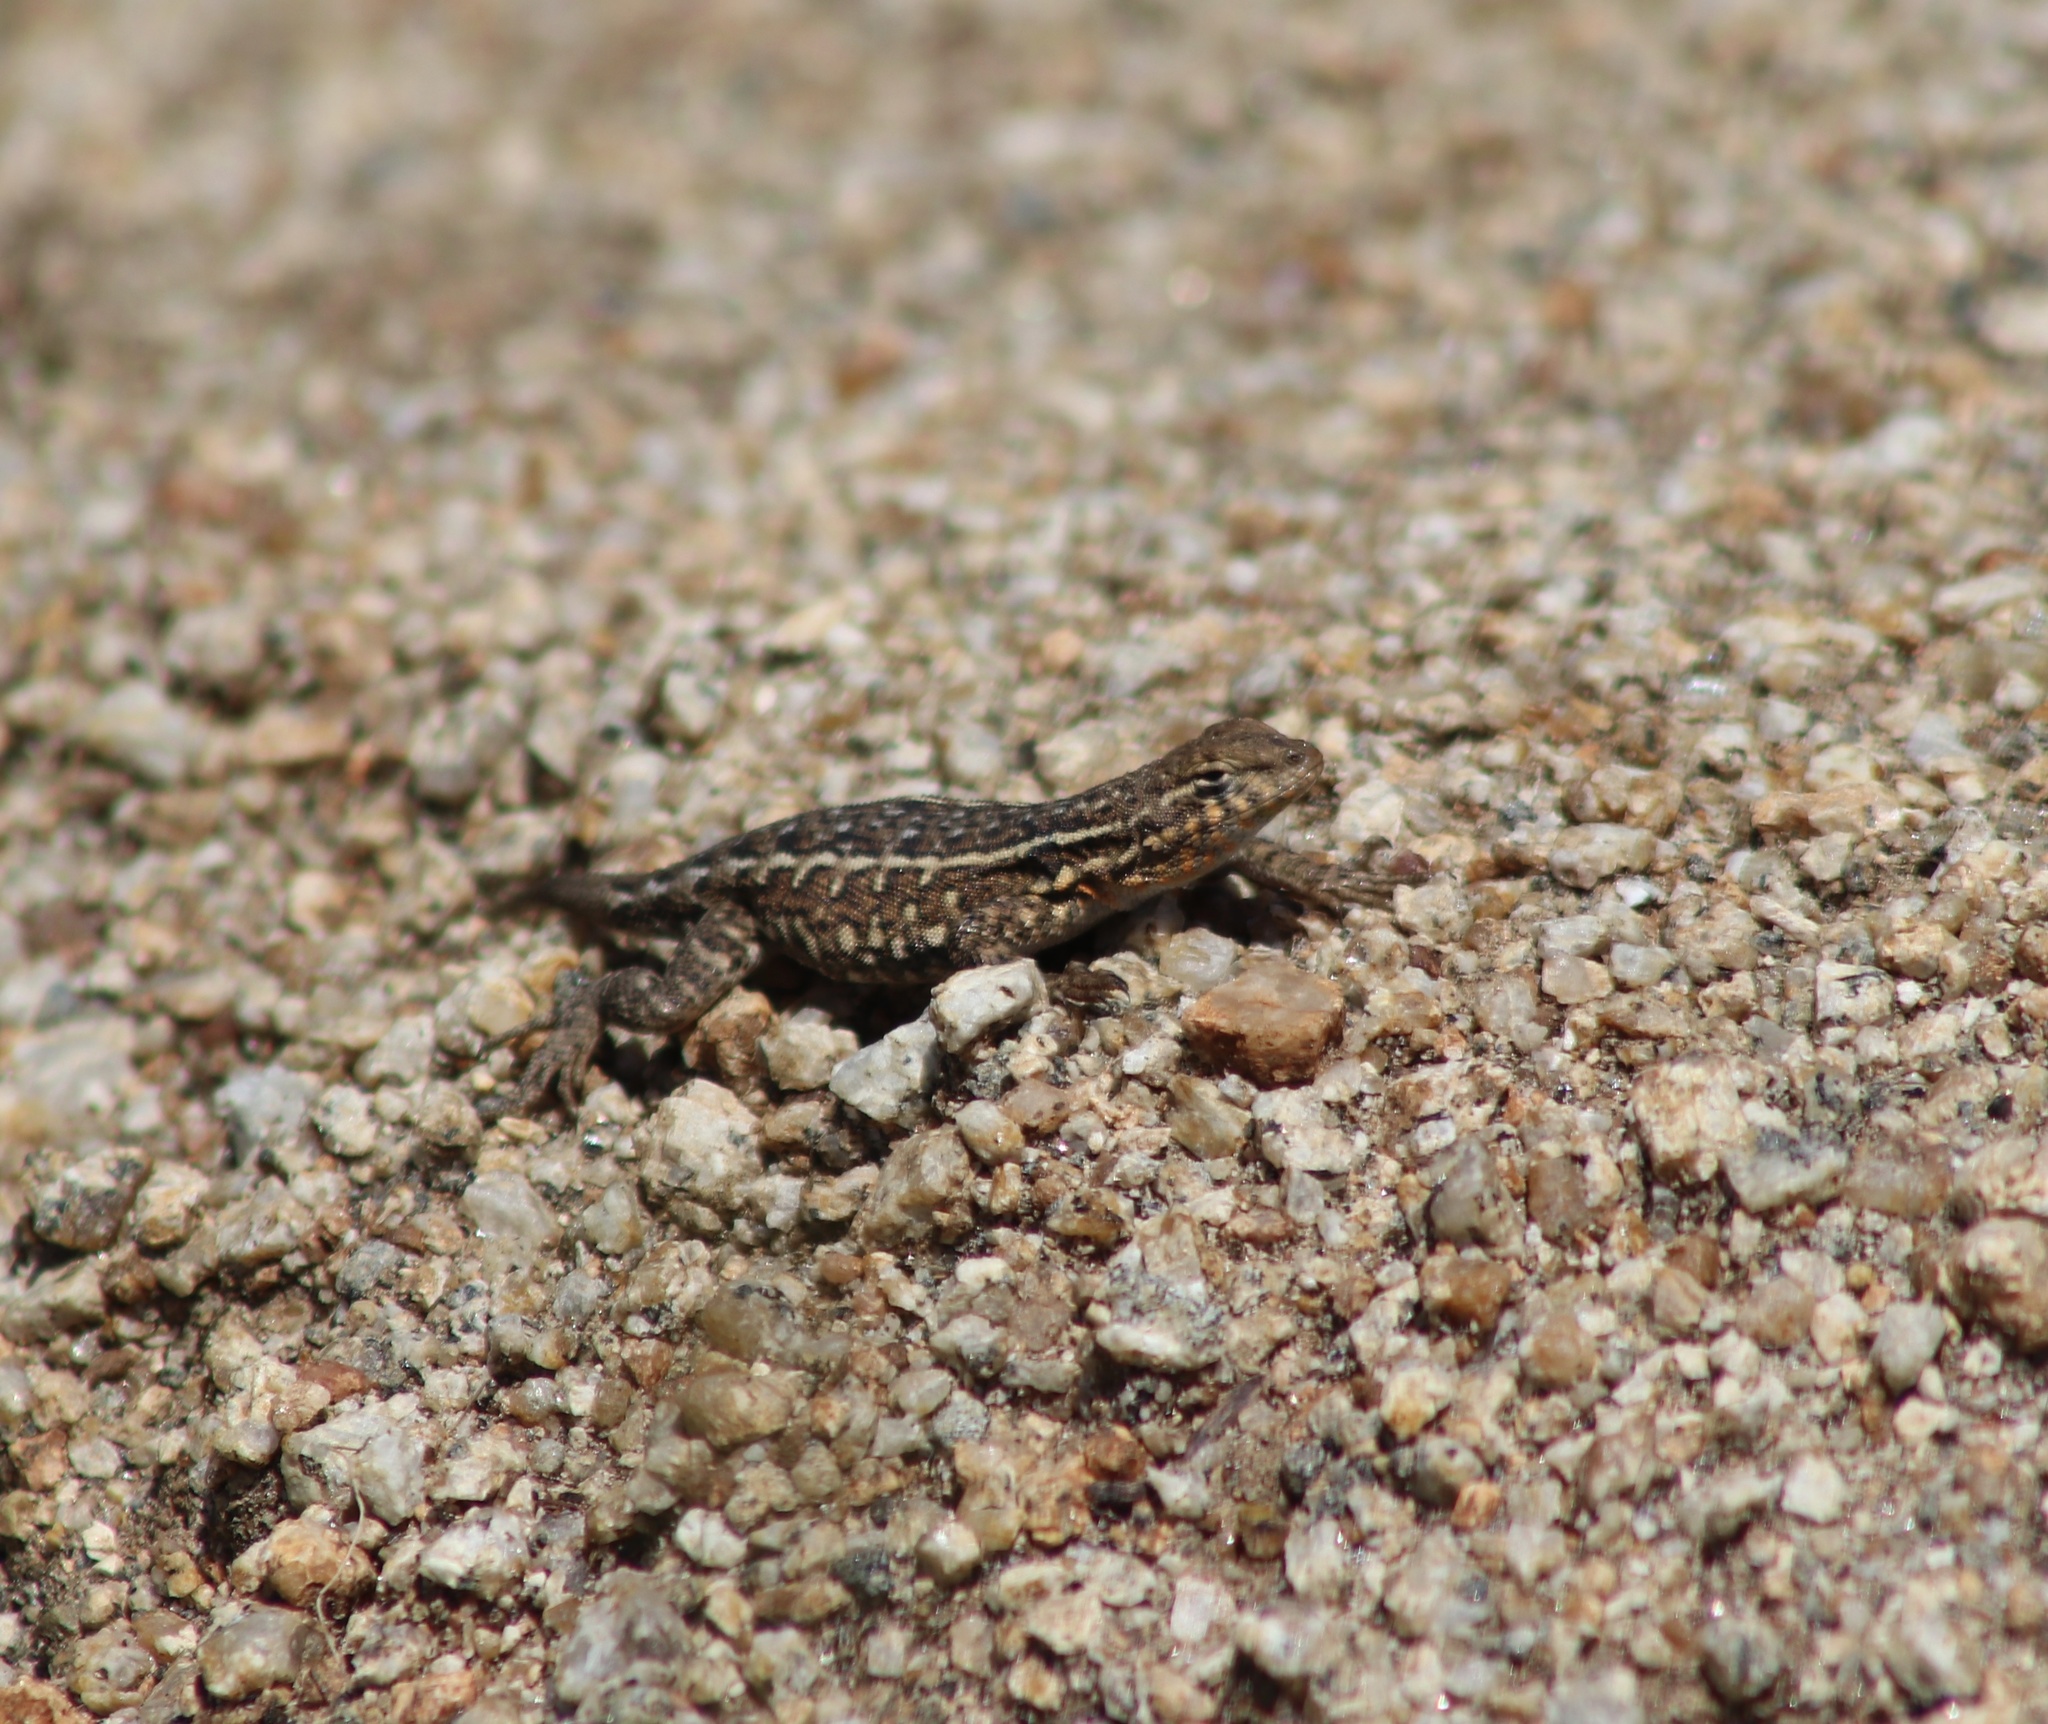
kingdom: Animalia
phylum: Chordata
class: Squamata
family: Phrynosomatidae
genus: Uta
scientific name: Uta stansburiana
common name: Side-blotched lizard
